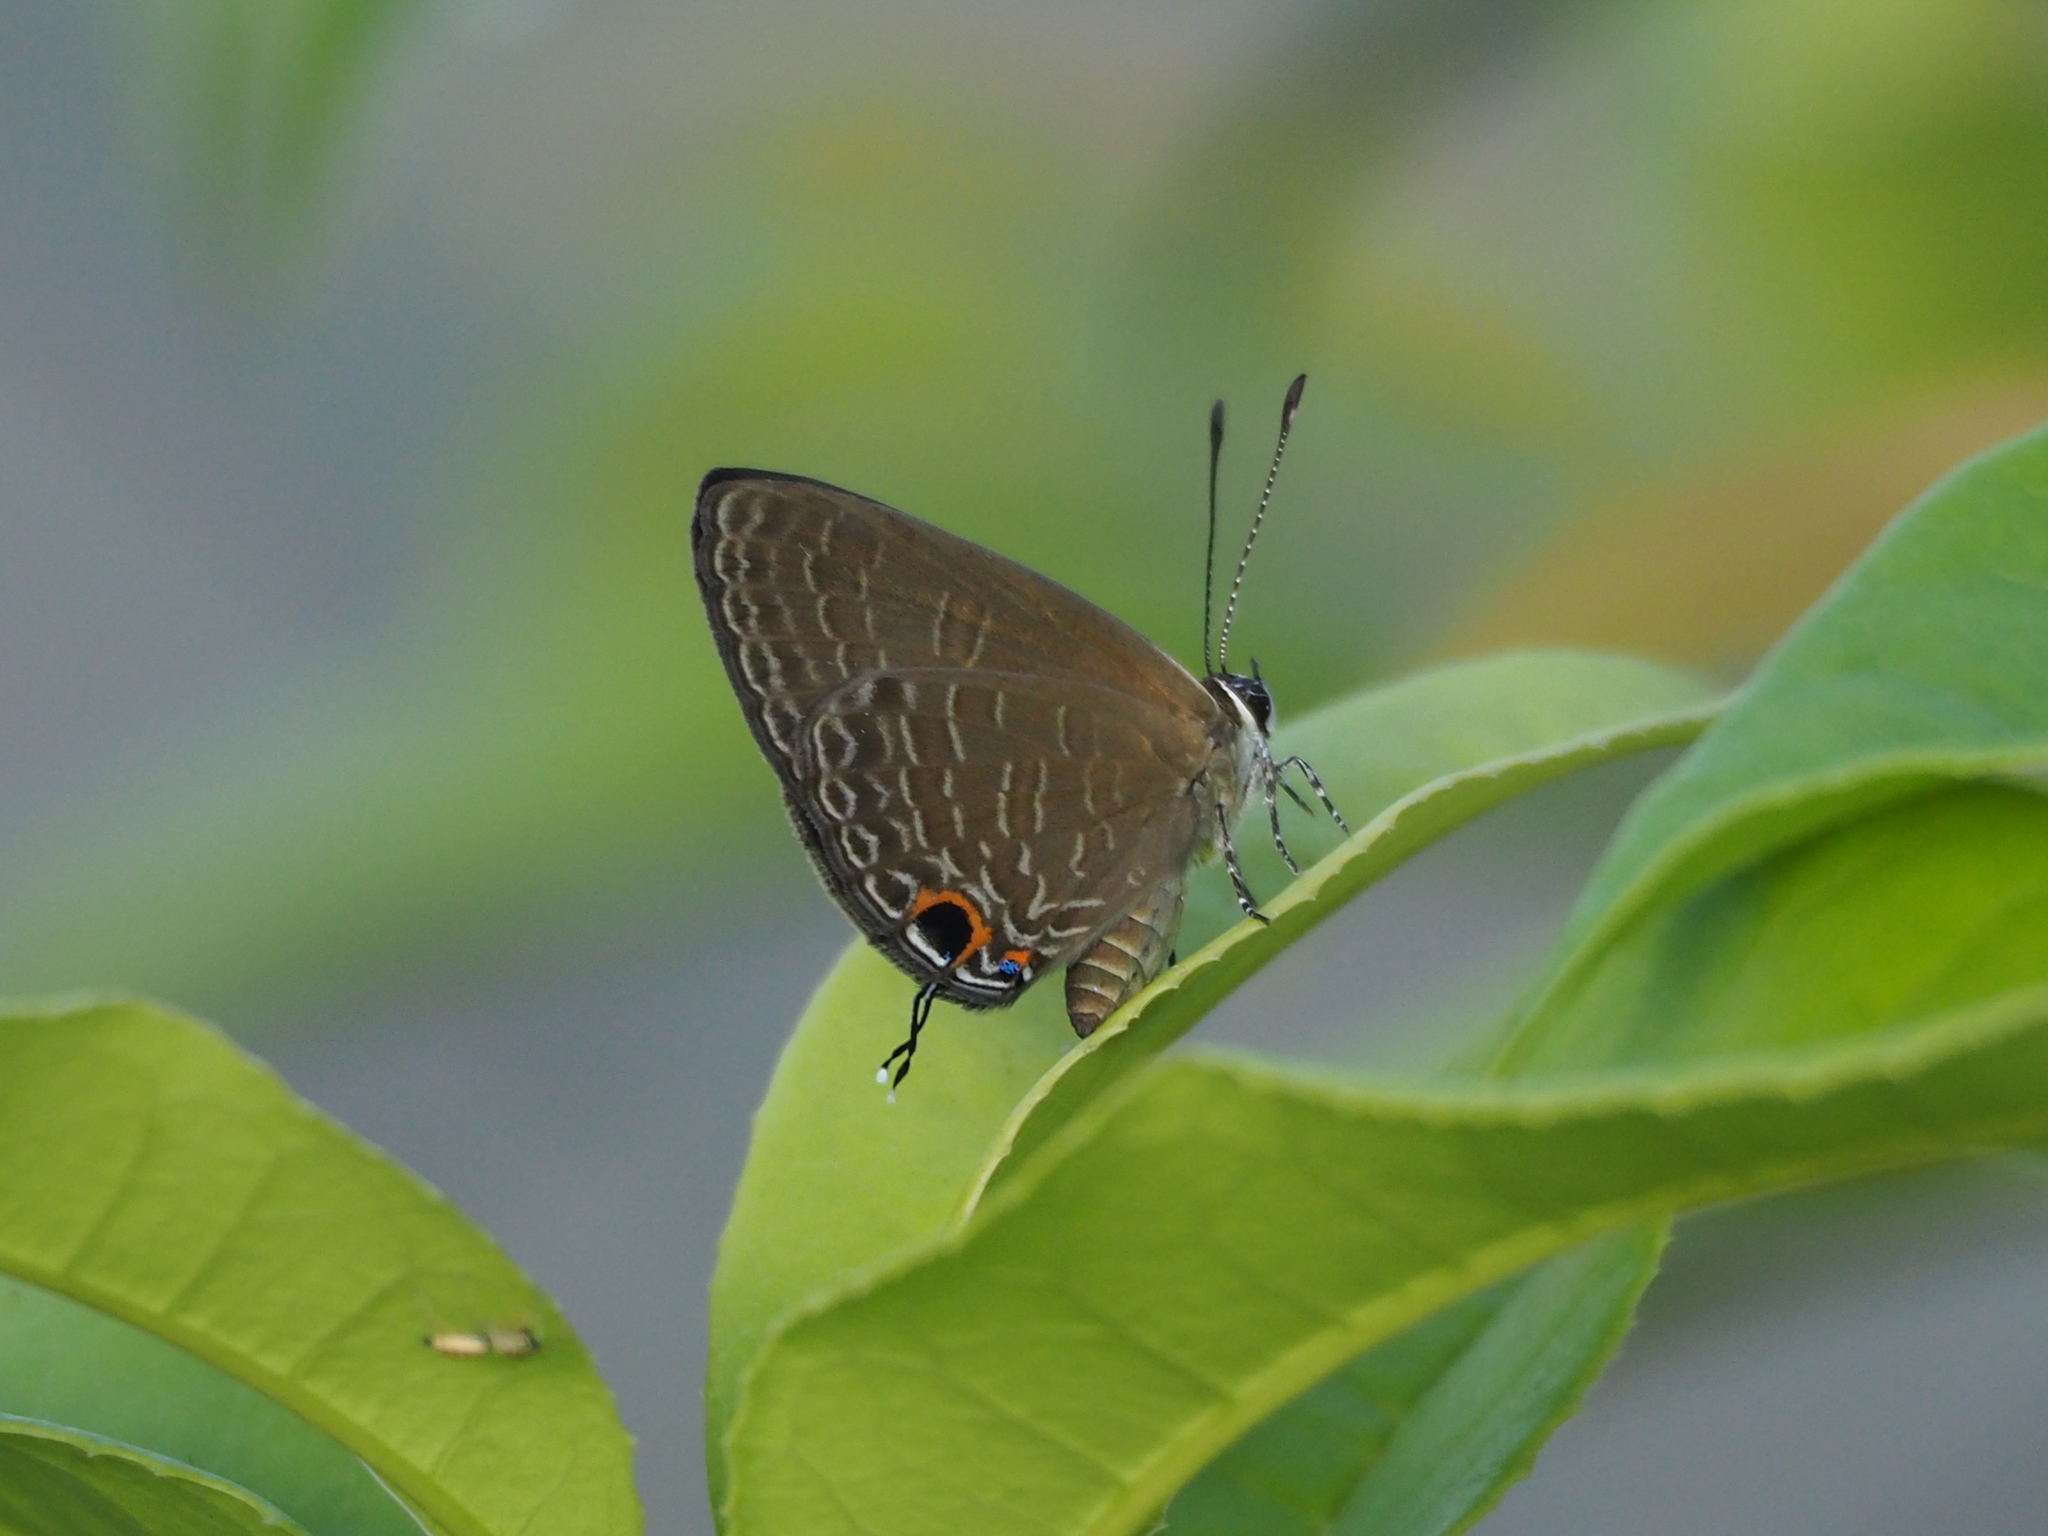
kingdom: Animalia
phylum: Arthropoda
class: Insecta
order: Lepidoptera
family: Lycaenidae
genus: Jamides
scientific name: Jamides bochus
